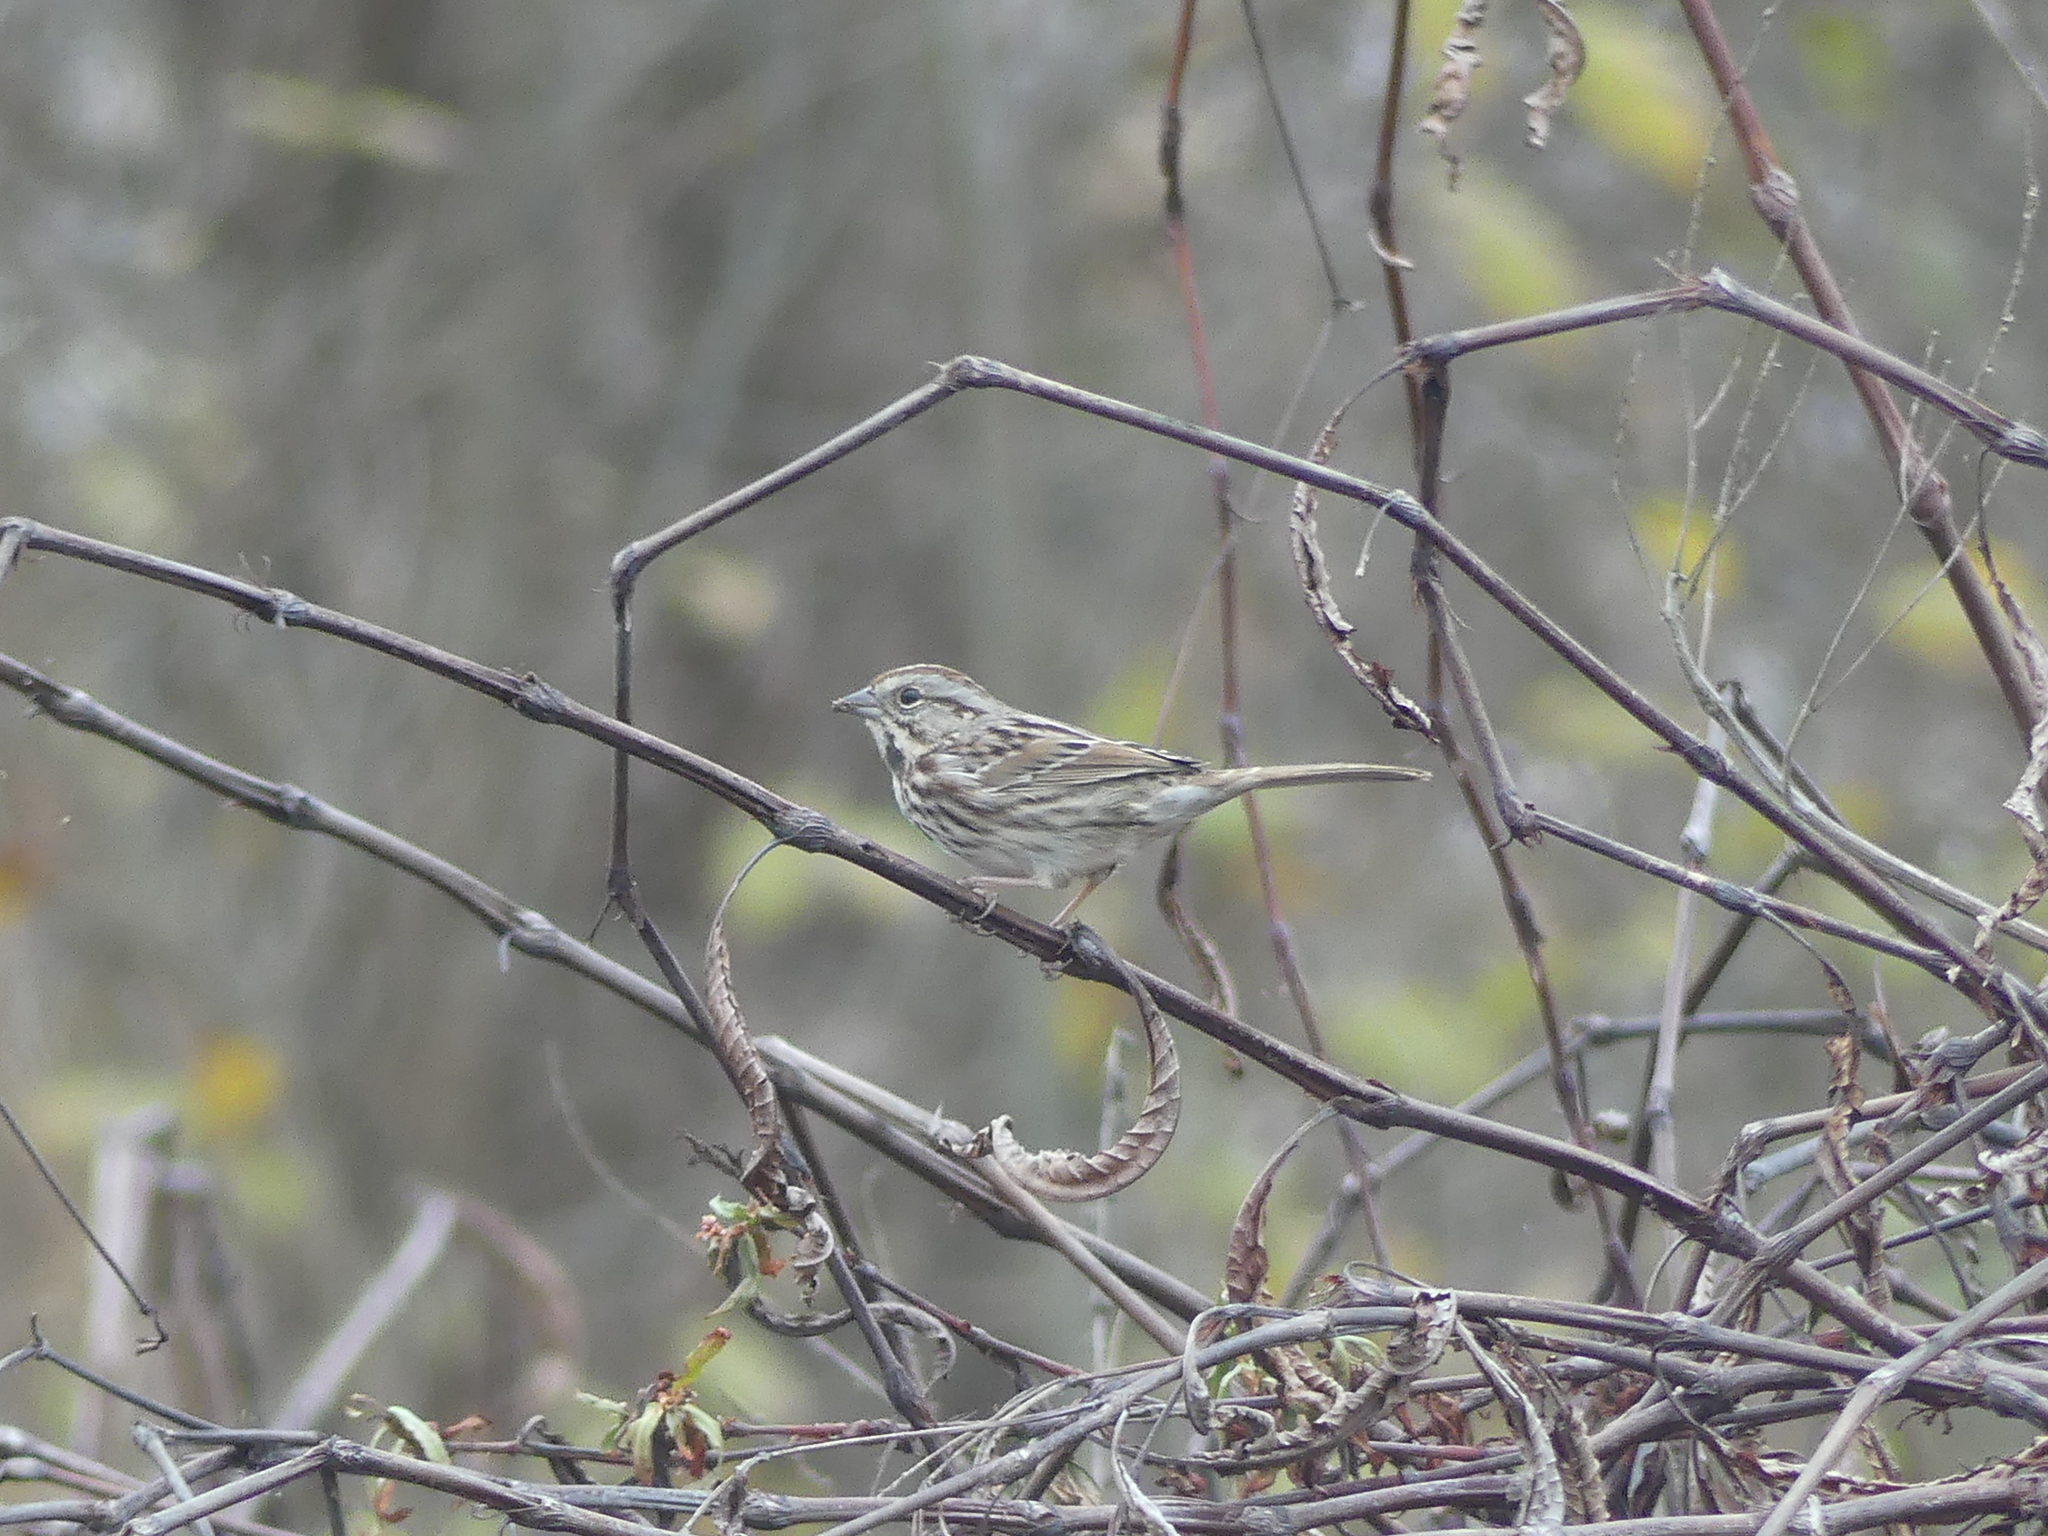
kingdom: Animalia
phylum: Chordata
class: Aves
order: Passeriformes
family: Passerellidae
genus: Melospiza
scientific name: Melospiza melodia
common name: Song sparrow
